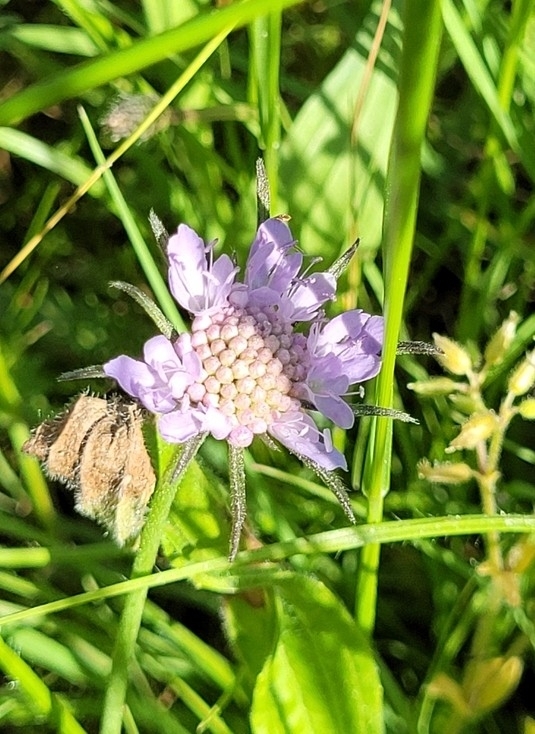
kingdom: Plantae
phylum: Tracheophyta
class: Magnoliopsida
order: Dipsacales
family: Caprifoliaceae
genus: Scabiosa
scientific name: Scabiosa columbaria
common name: Small scabious
